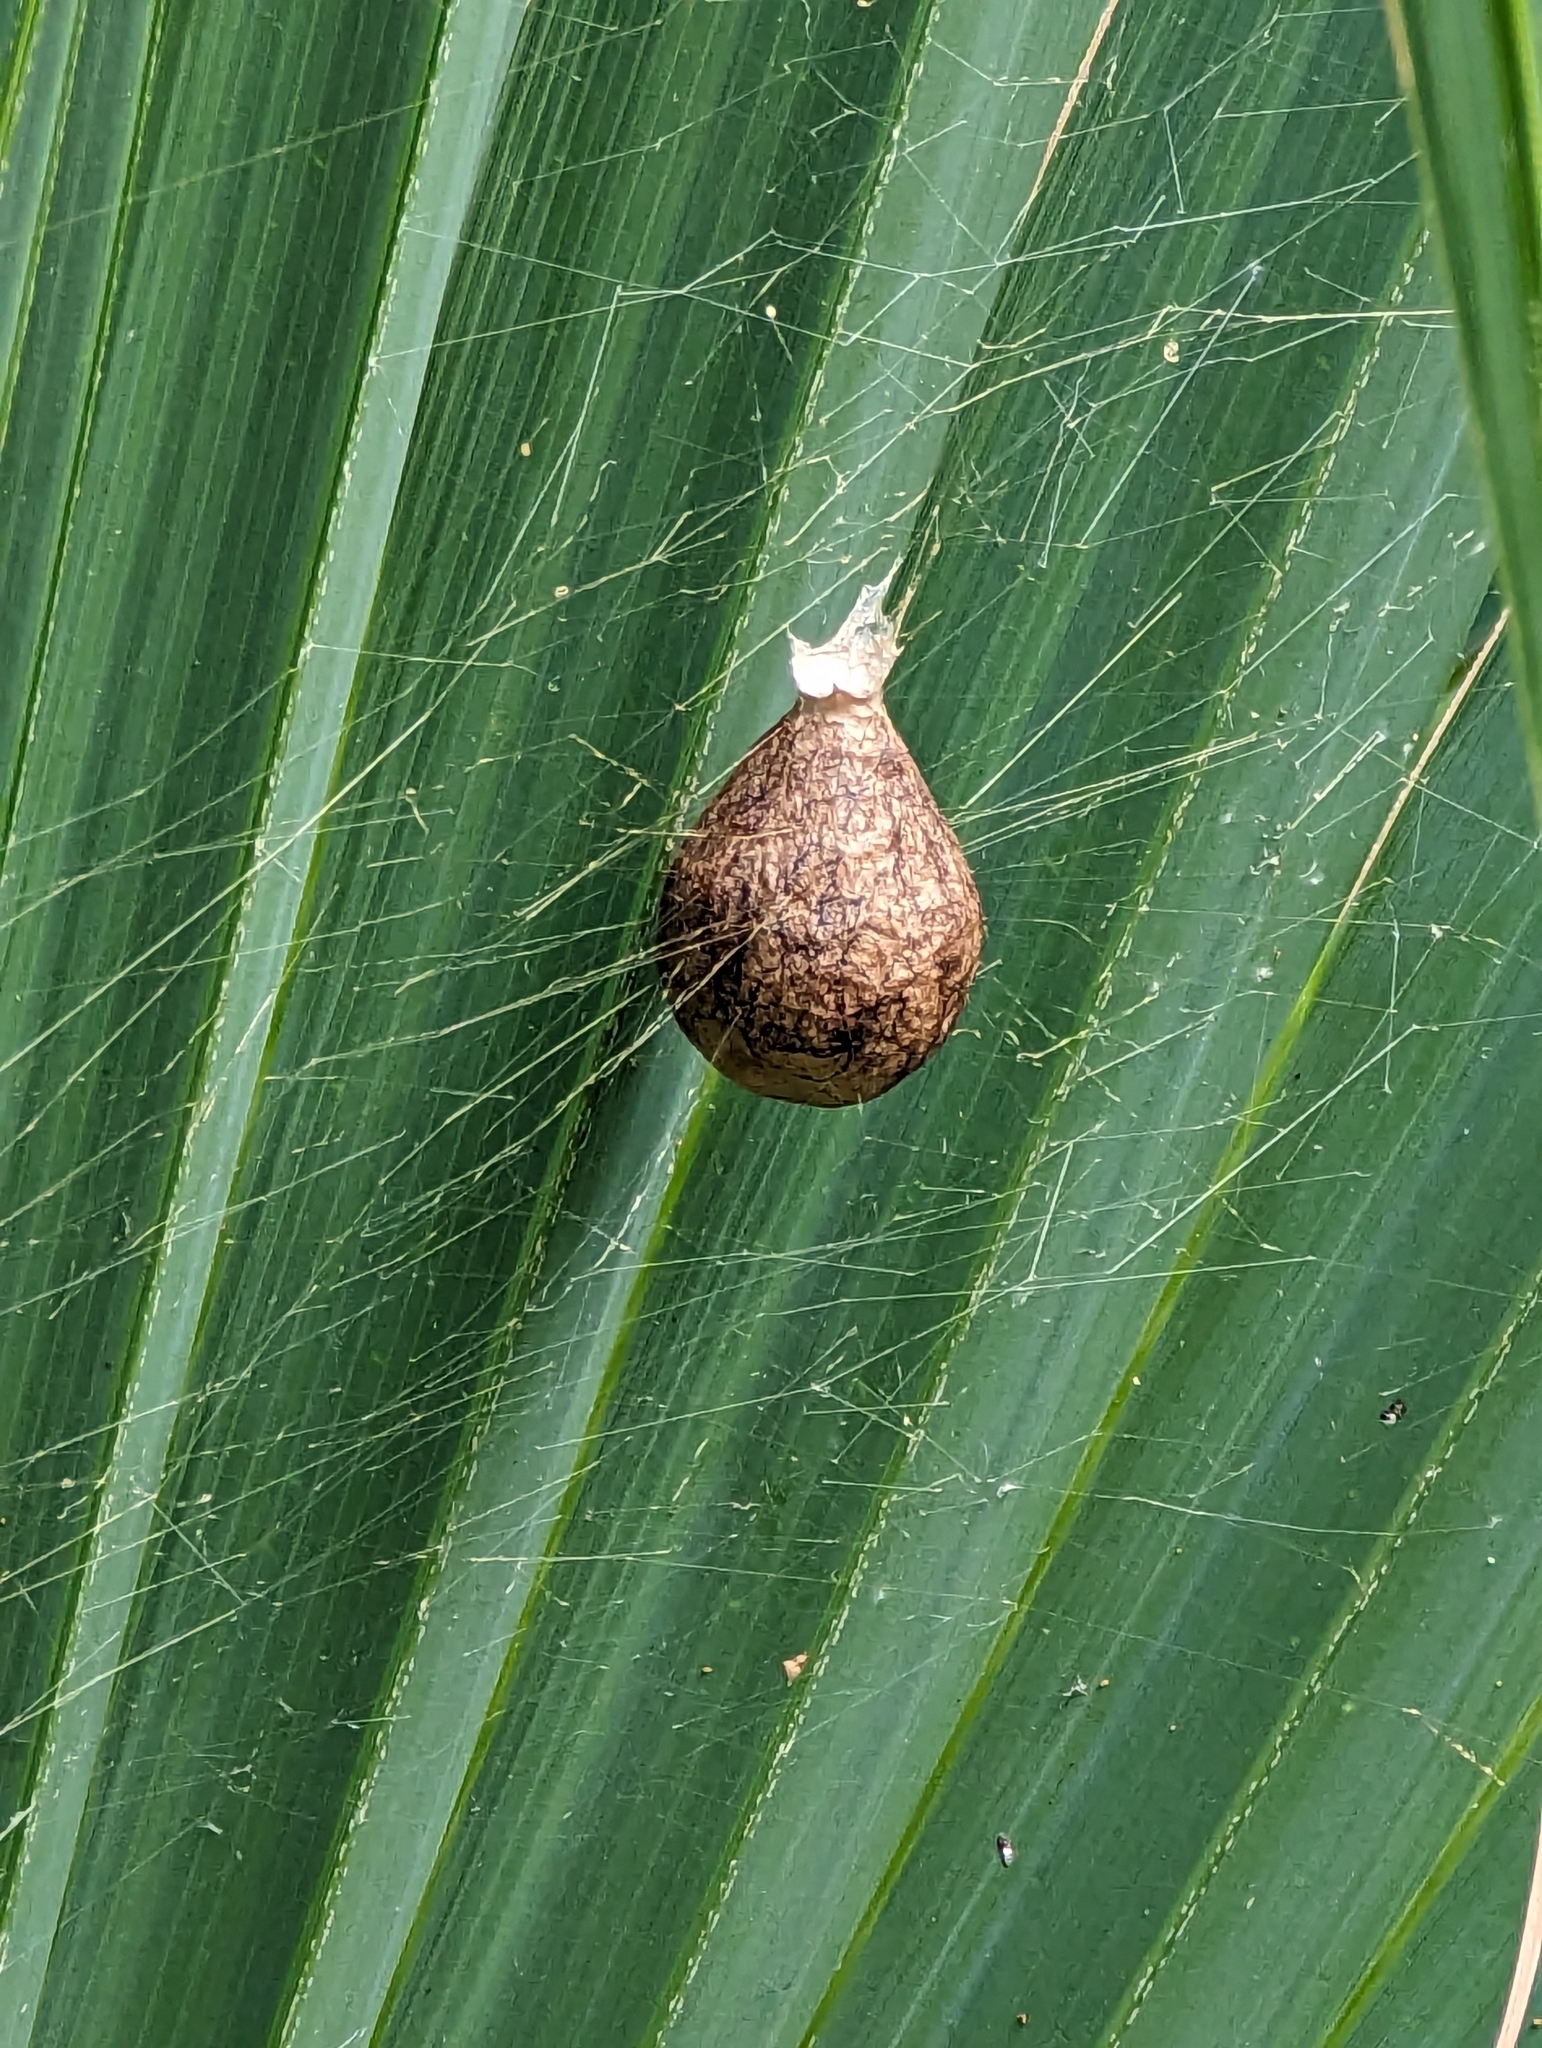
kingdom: Animalia
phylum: Arthropoda
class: Arachnida
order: Araneae
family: Araneidae
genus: Argiope
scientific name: Argiope aurantia
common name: Orb weavers
